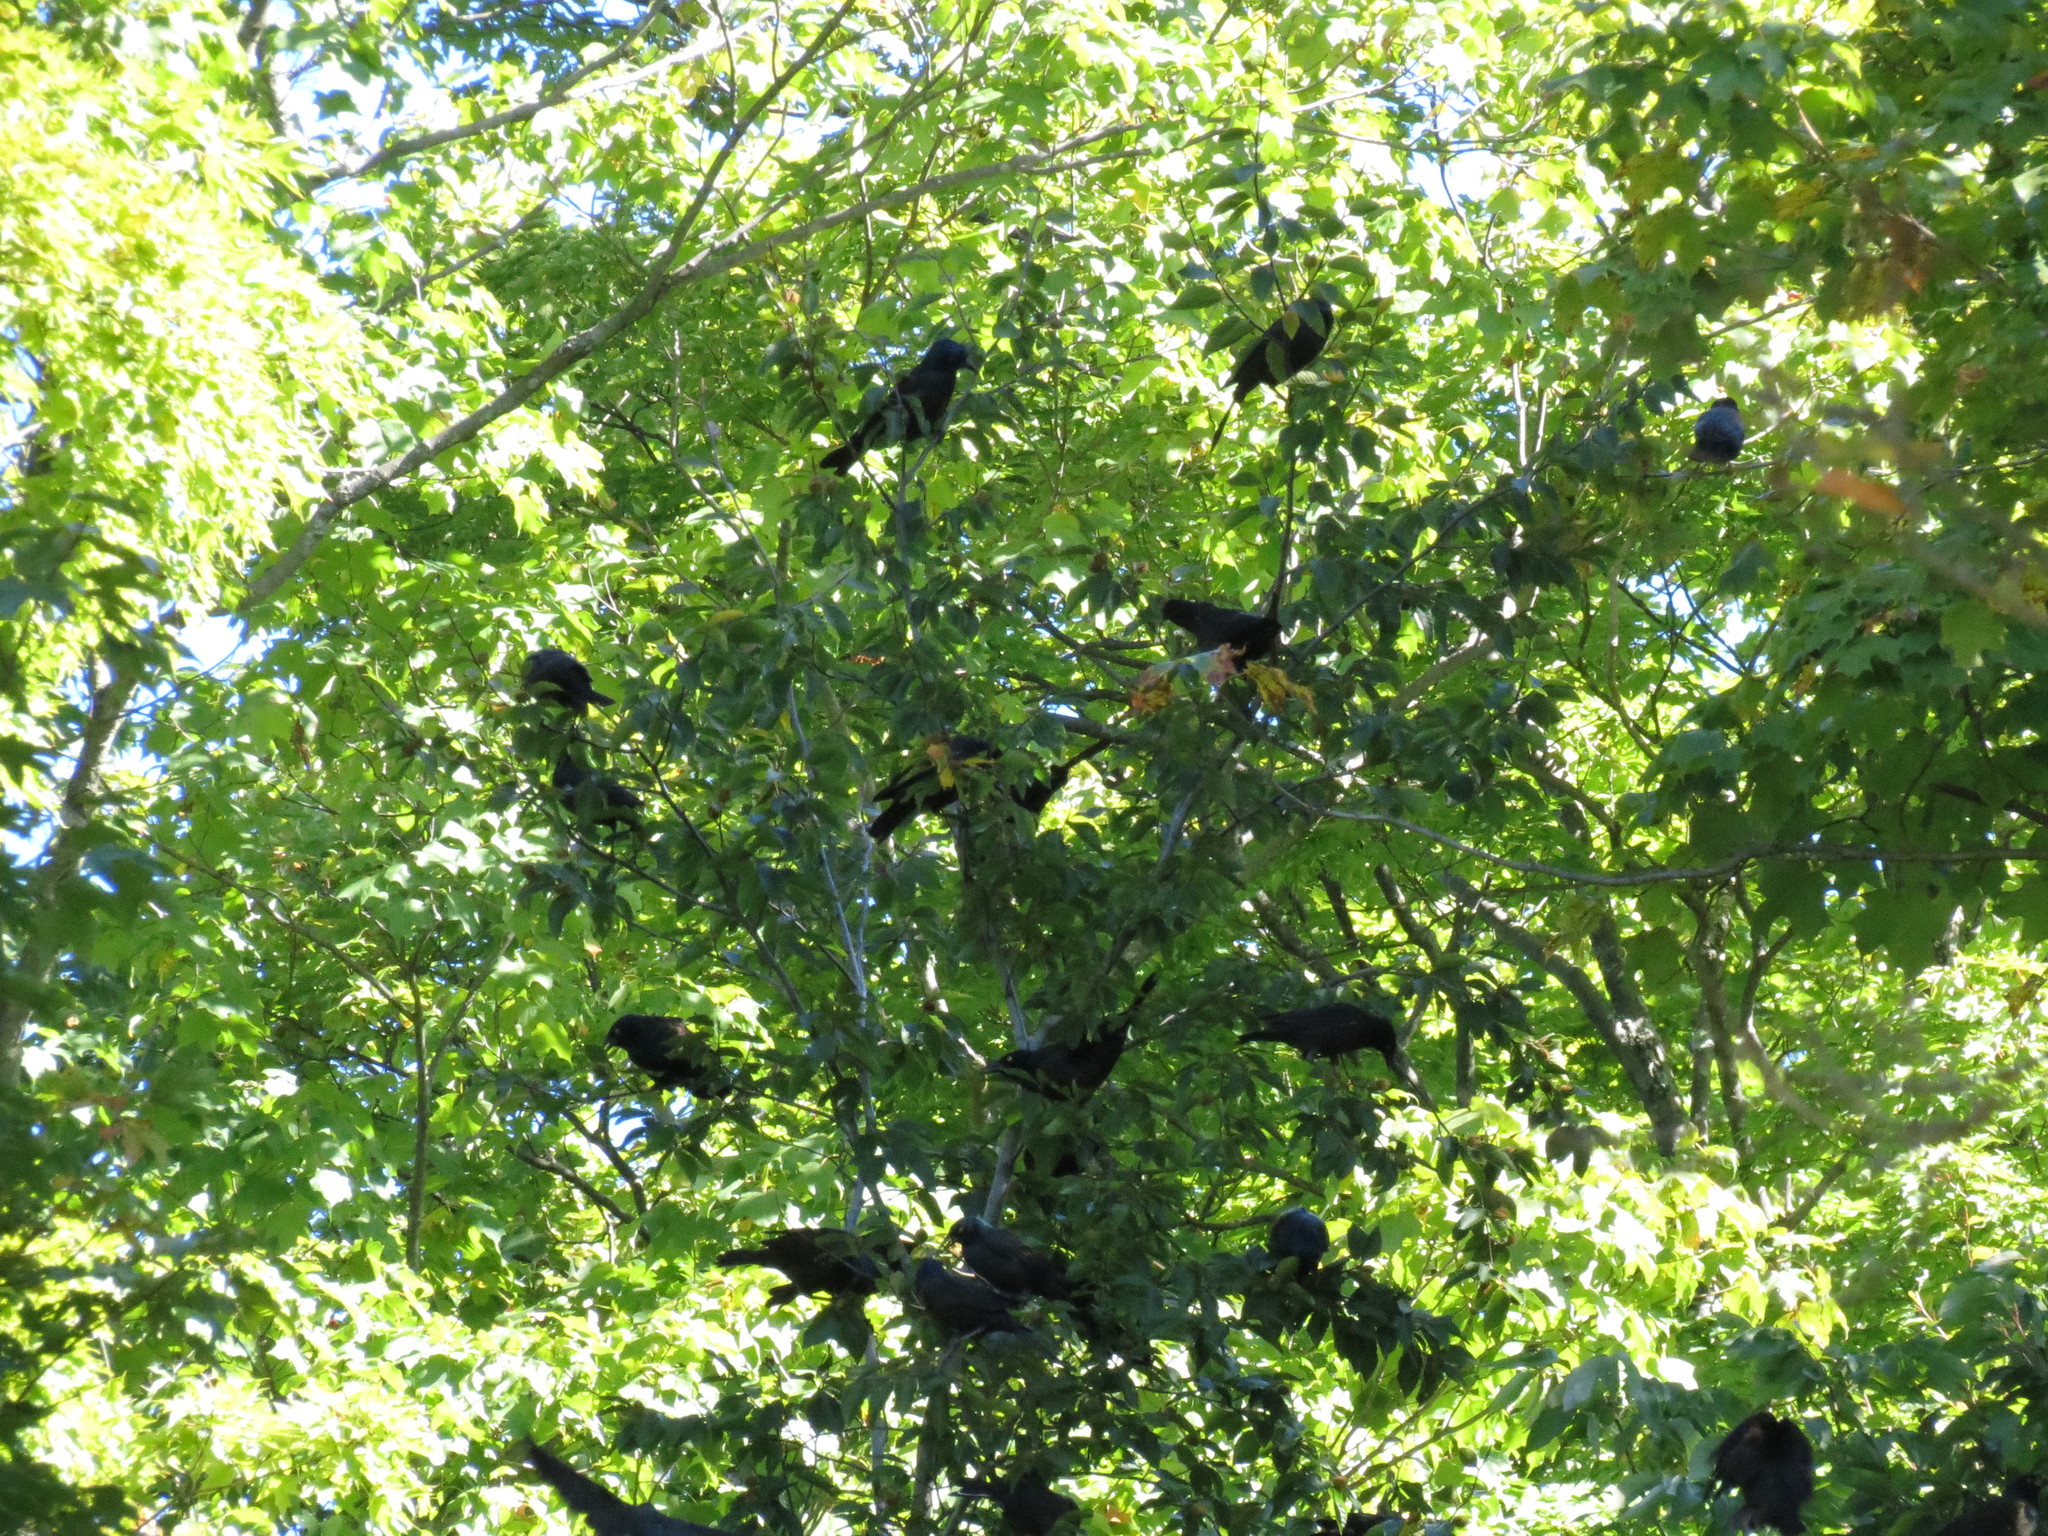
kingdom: Animalia
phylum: Chordata
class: Aves
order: Passeriformes
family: Icteridae
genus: Quiscalus
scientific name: Quiscalus quiscula
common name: Common grackle
